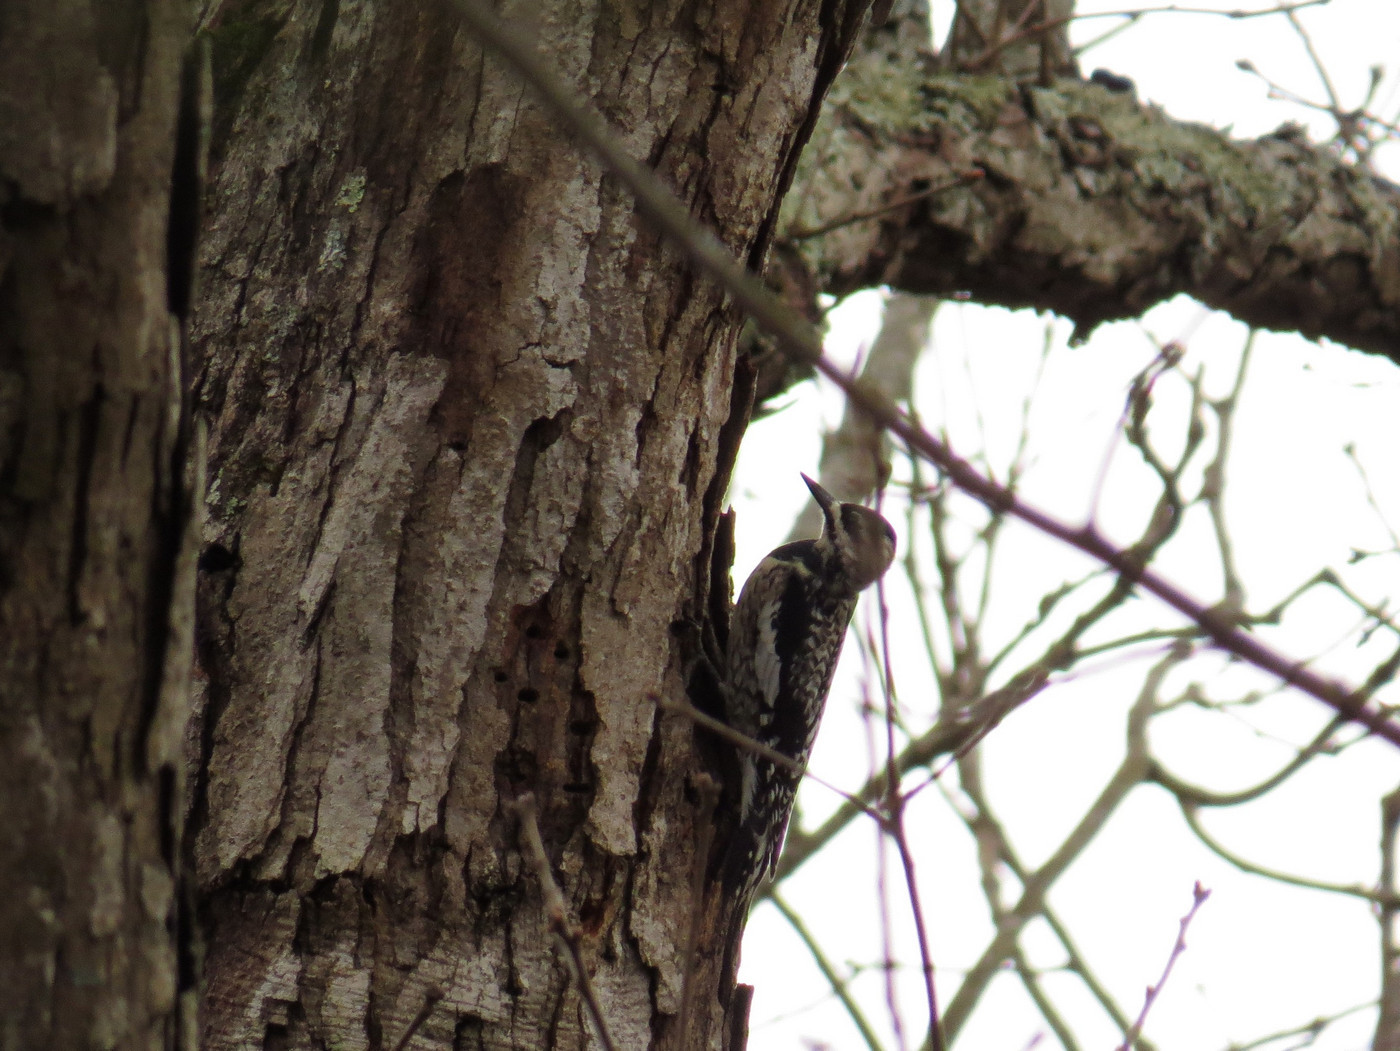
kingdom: Animalia
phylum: Chordata
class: Aves
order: Piciformes
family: Picidae
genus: Sphyrapicus
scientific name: Sphyrapicus varius
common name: Yellow-bellied sapsucker
